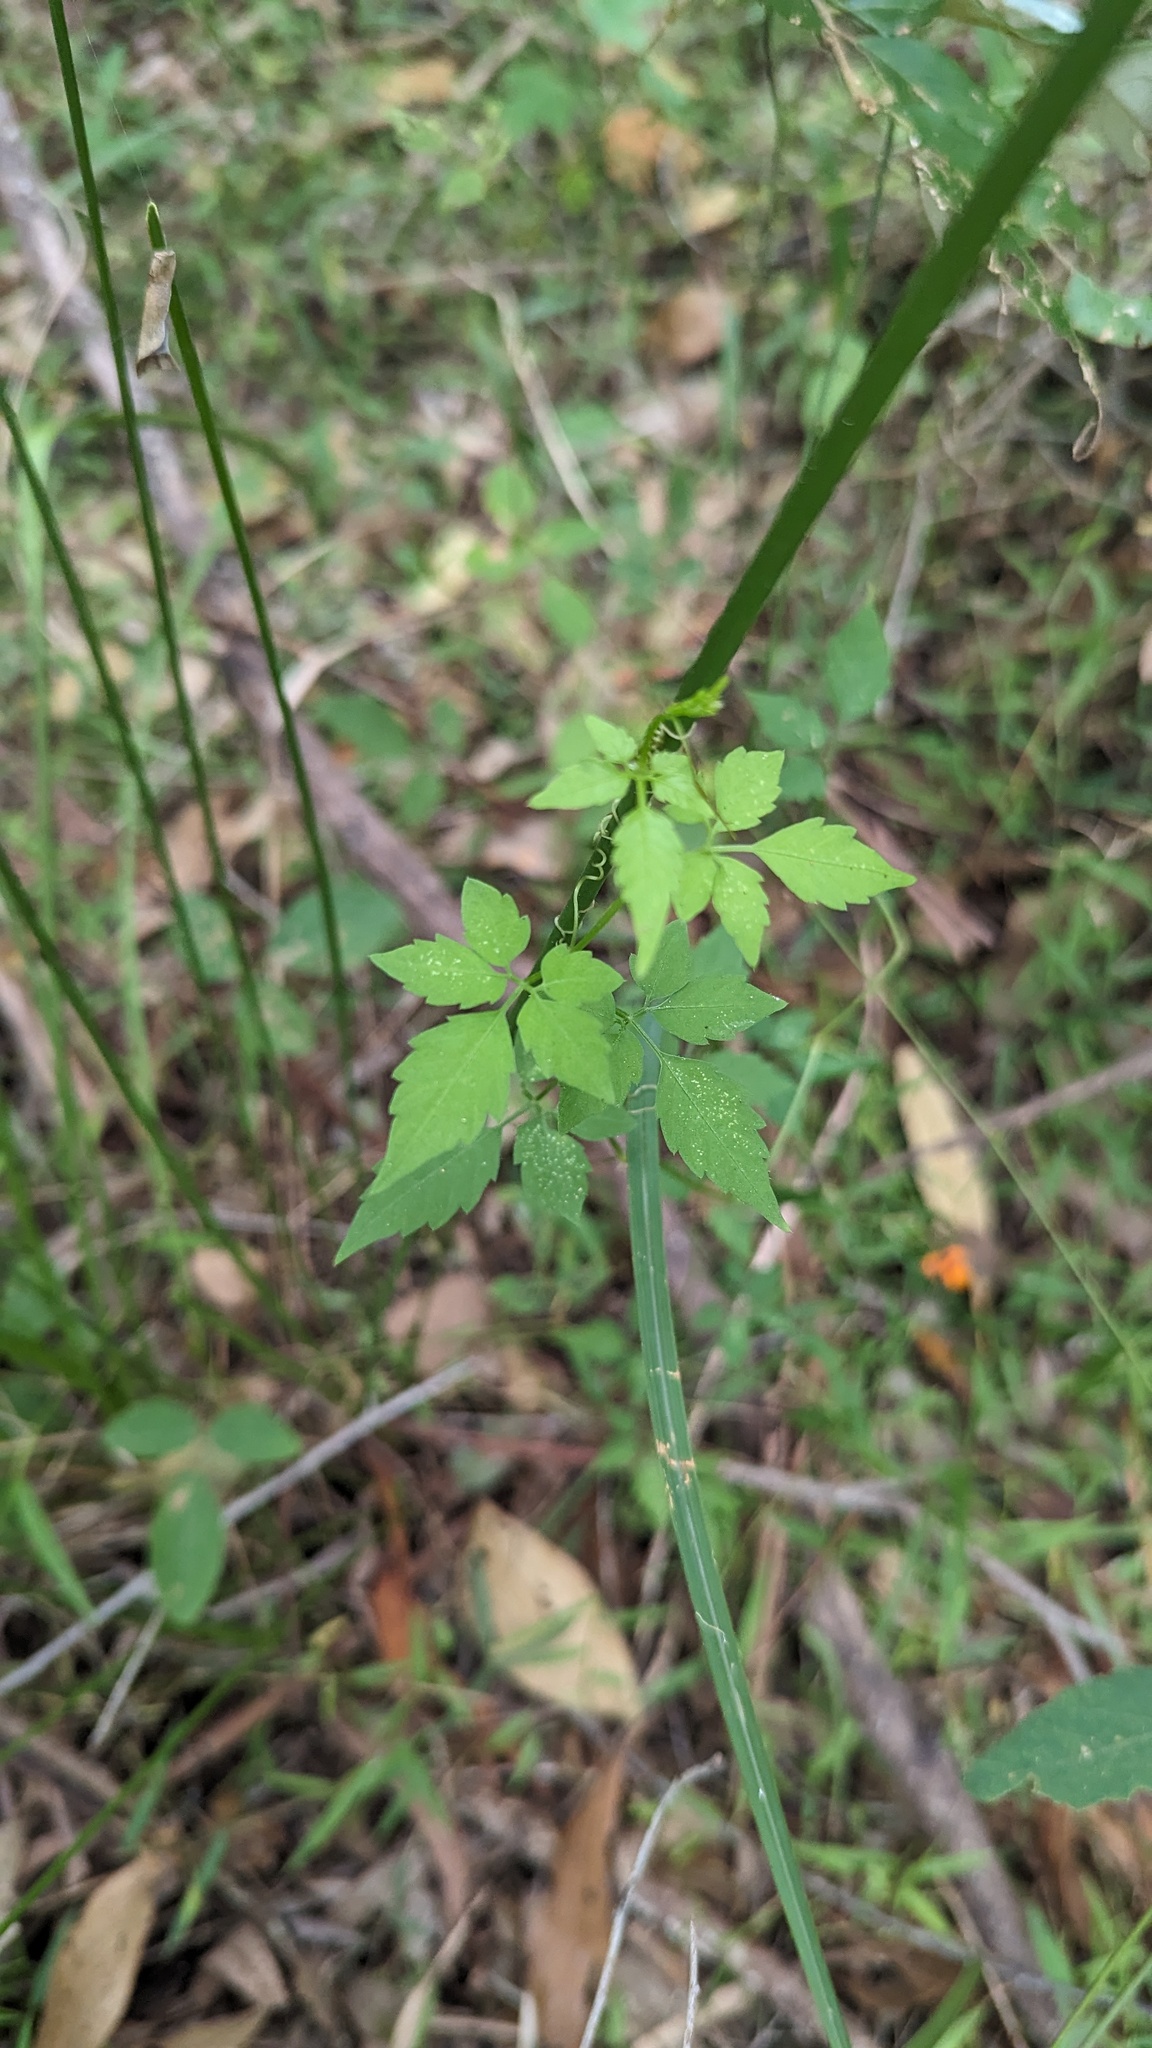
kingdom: Plantae
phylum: Tracheophyta
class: Magnoliopsida
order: Vitales
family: Vitaceae
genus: Causonis
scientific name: Causonis clematidea
